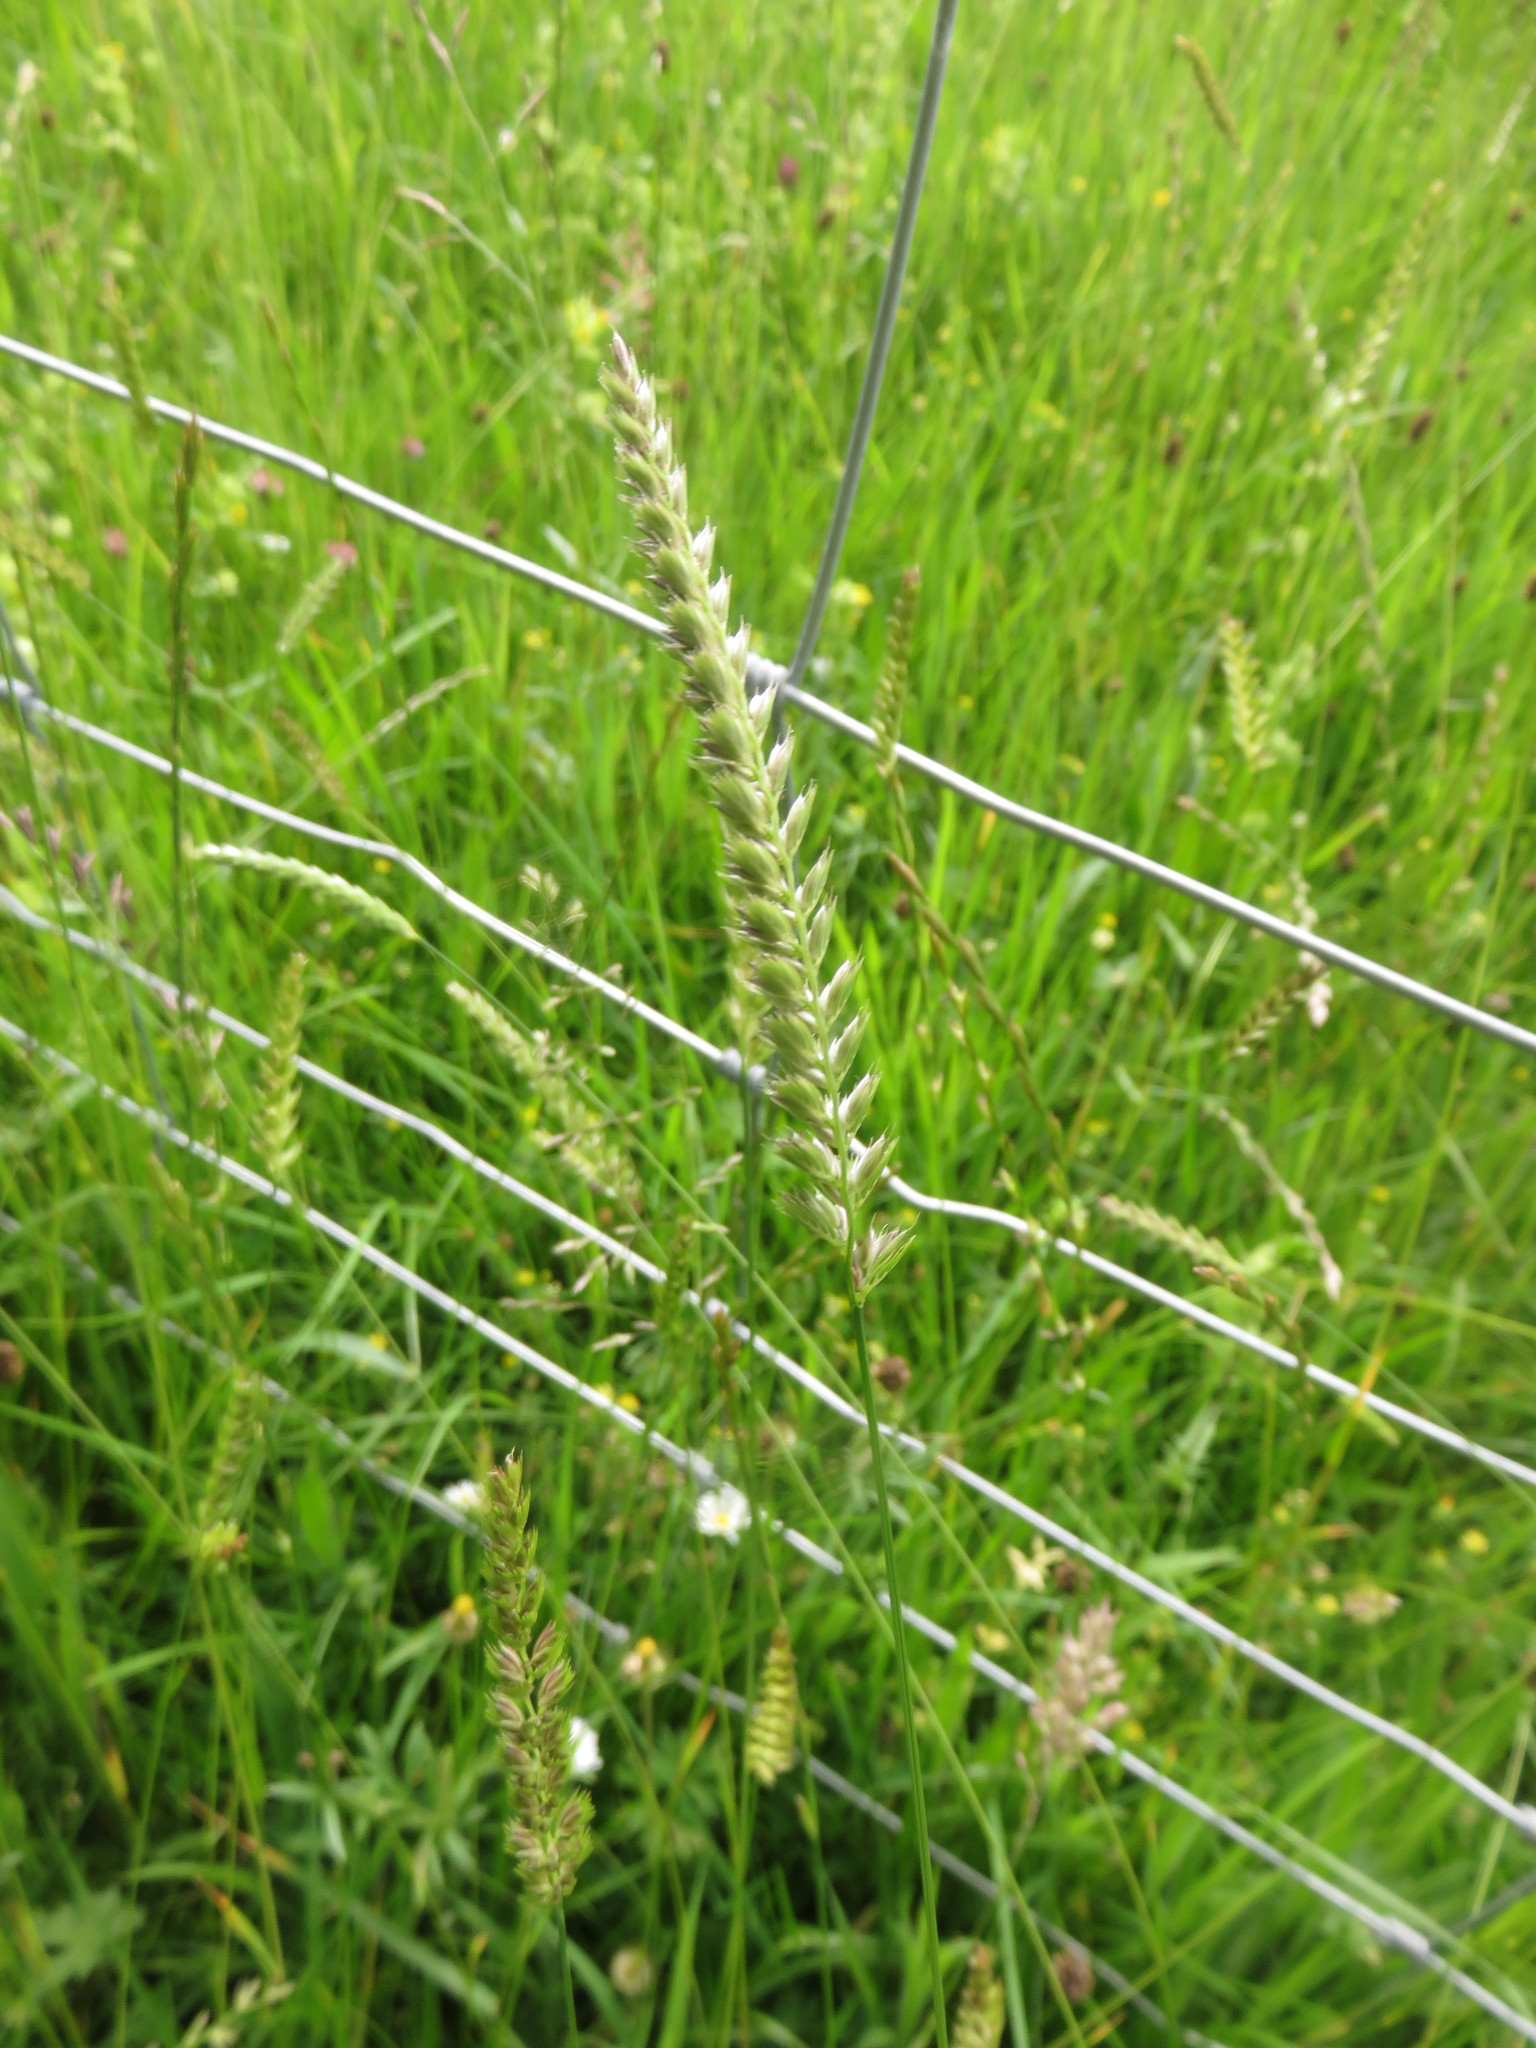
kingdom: Plantae
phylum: Tracheophyta
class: Liliopsida
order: Poales
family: Poaceae
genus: Cynosurus
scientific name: Cynosurus cristatus
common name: Crested dog's-tail
